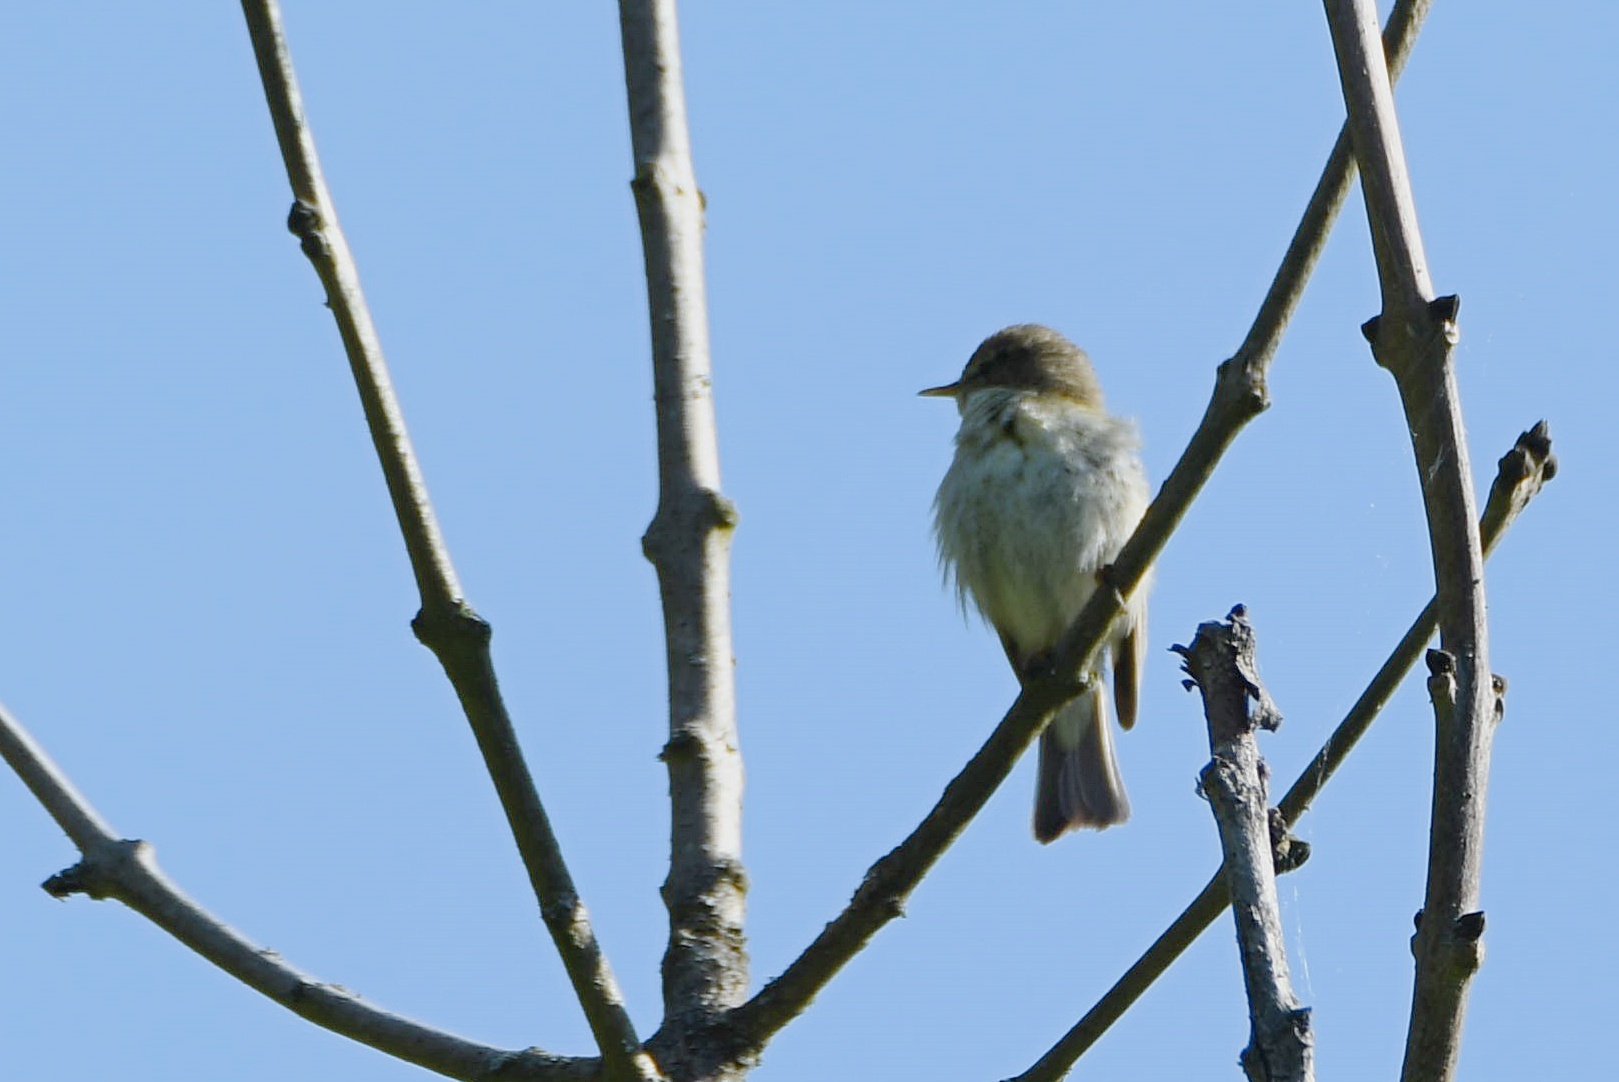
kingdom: Animalia
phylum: Chordata
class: Aves
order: Passeriformes
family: Phylloscopidae
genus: Phylloscopus
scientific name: Phylloscopus collybita
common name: Common chiffchaff
